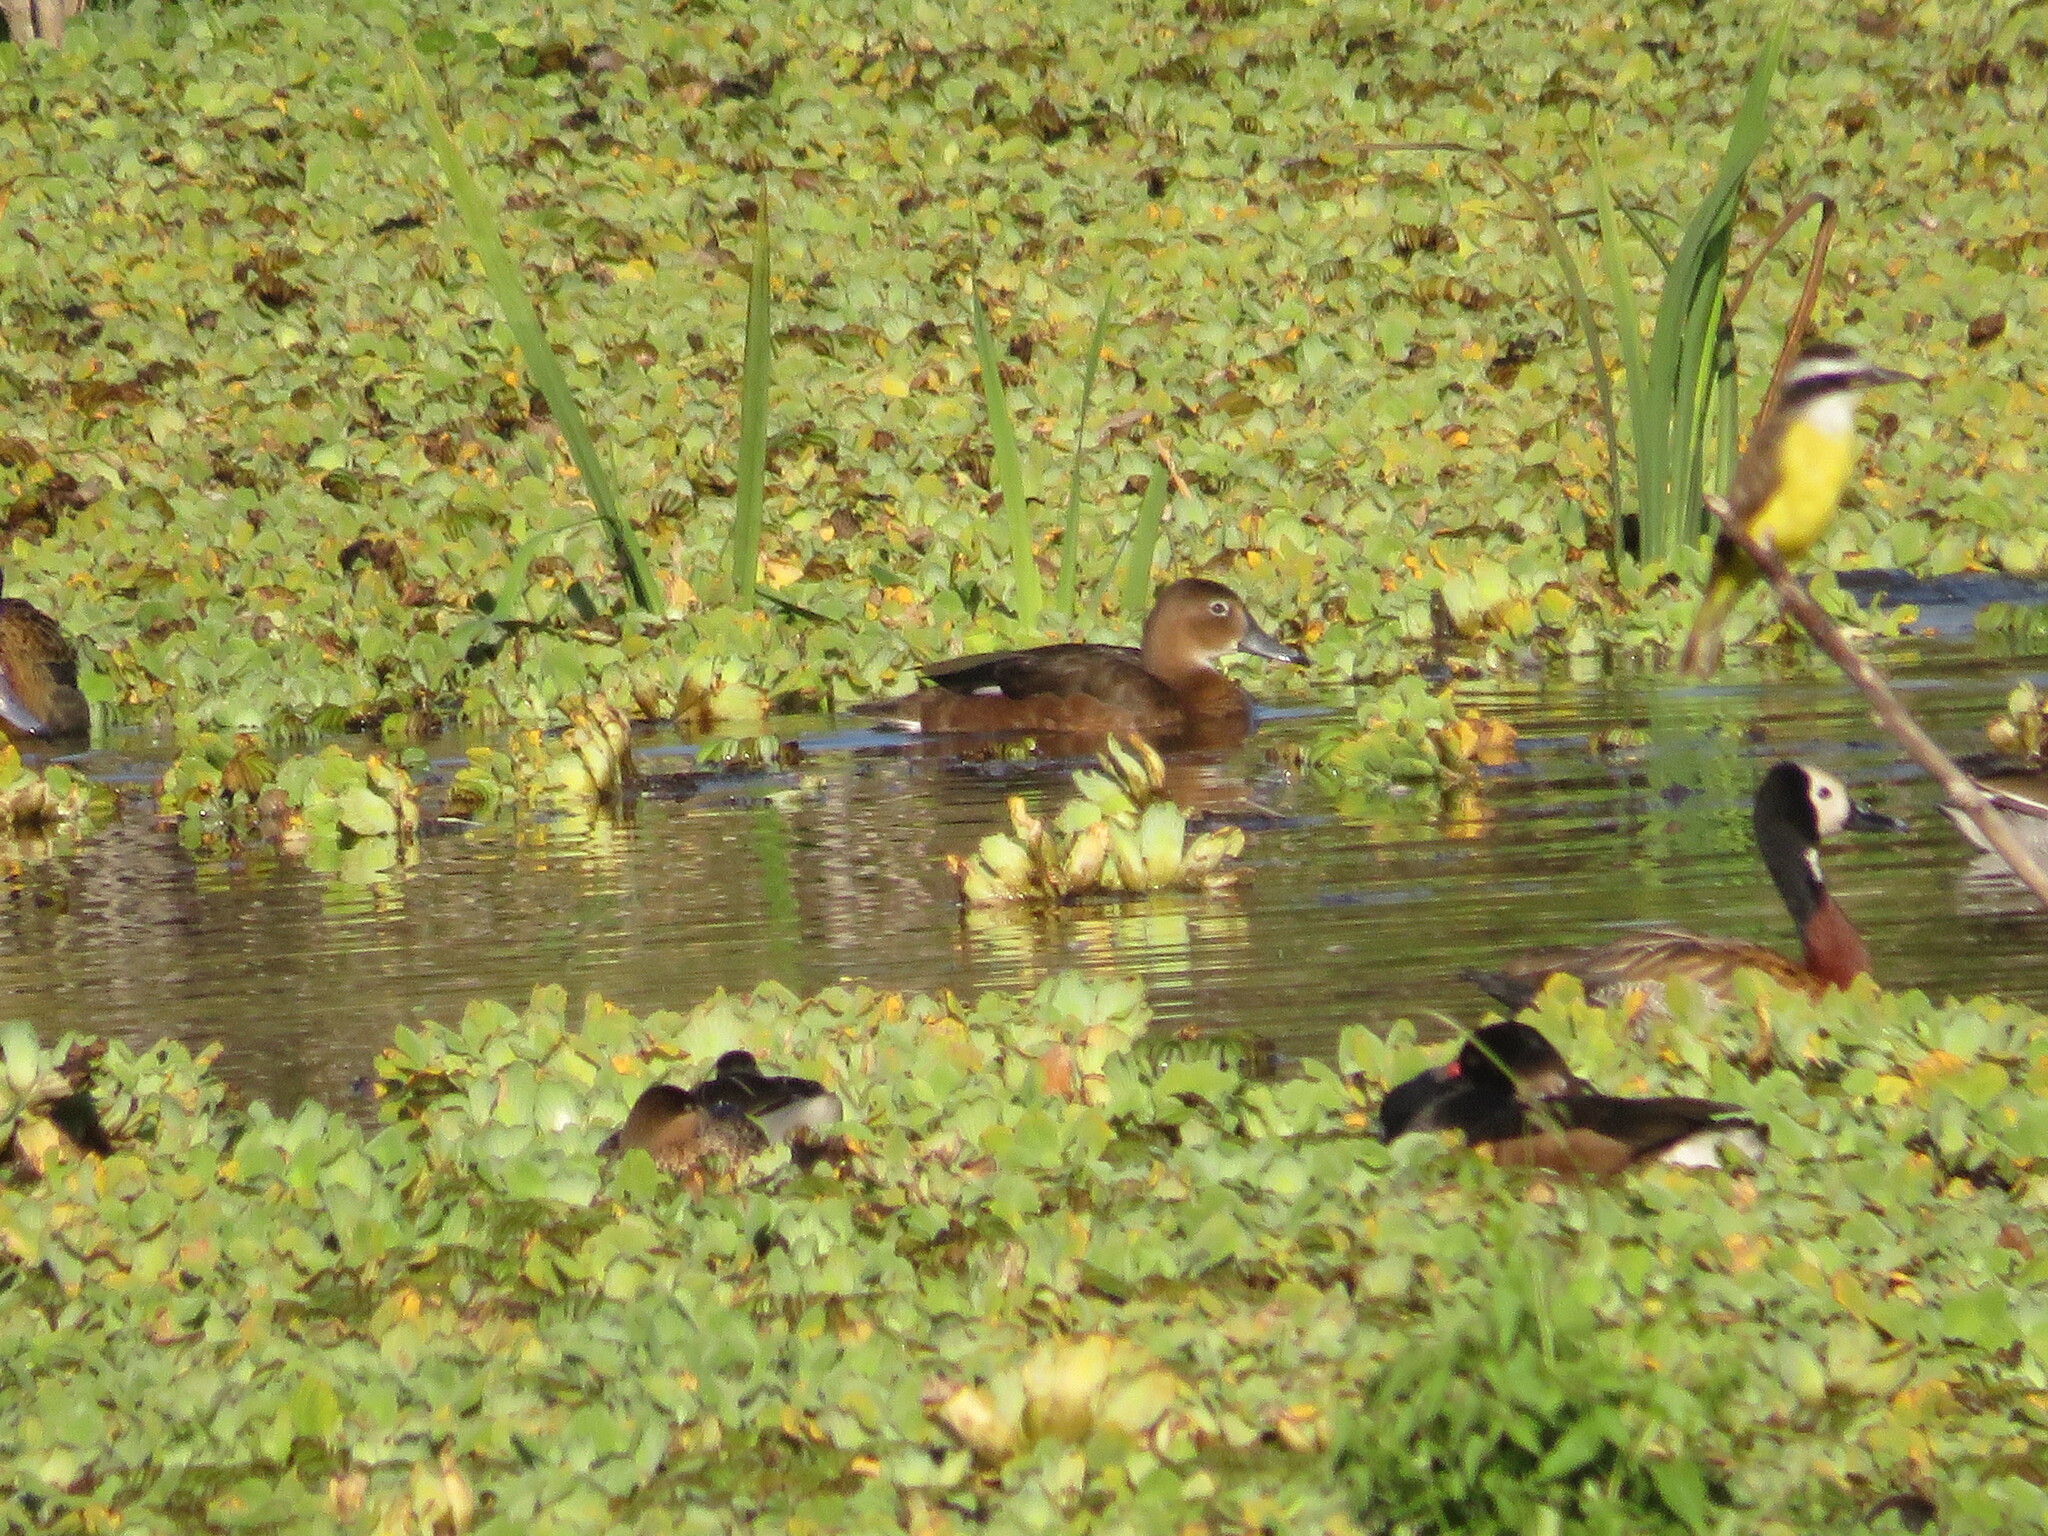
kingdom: Animalia
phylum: Chordata
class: Aves
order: Anseriformes
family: Anatidae
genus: Netta
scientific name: Netta peposaca
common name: Rosy-billed pochard
